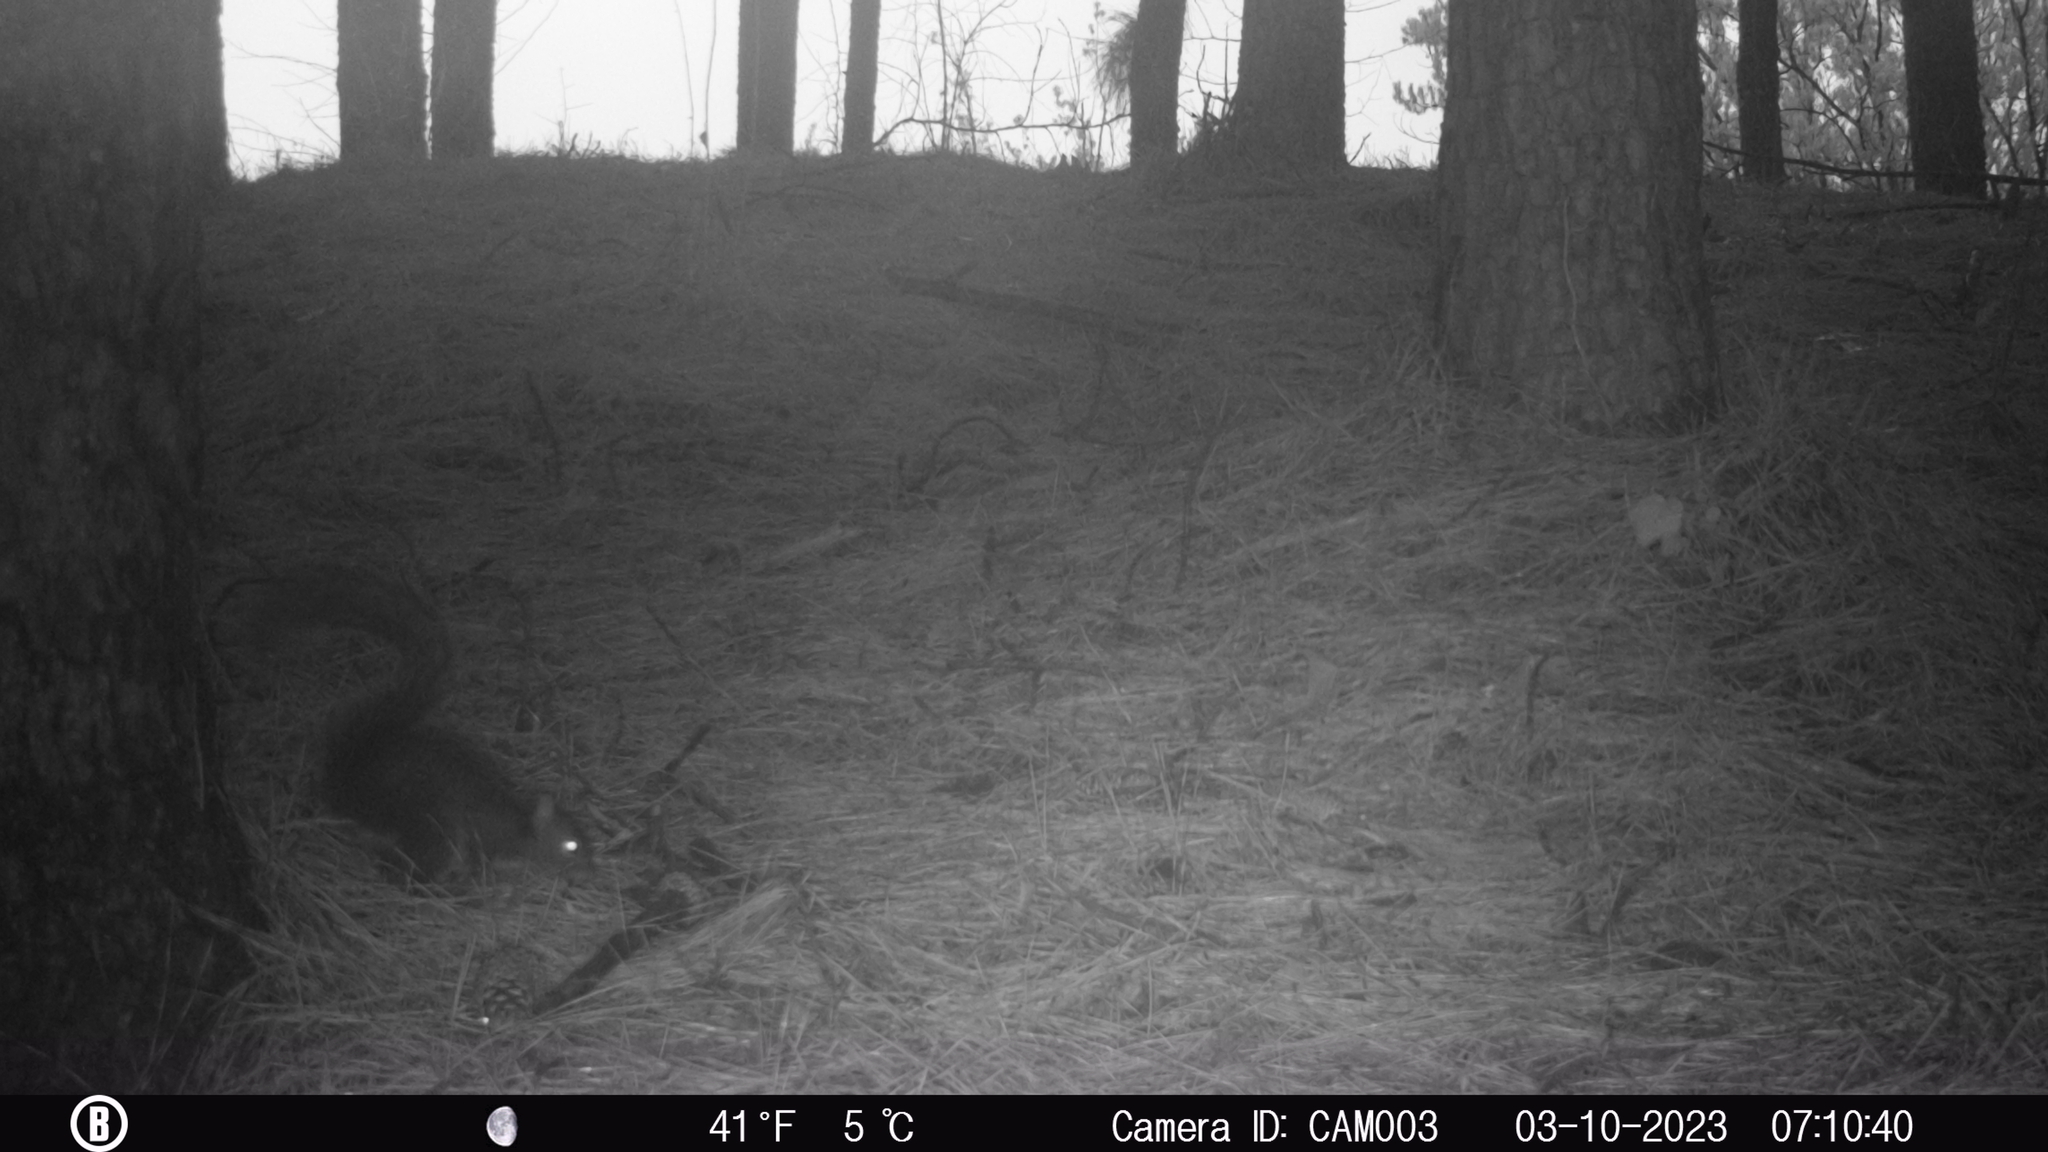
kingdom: Animalia
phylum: Chordata
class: Mammalia
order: Rodentia
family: Sciuridae
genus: Sciurus
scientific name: Sciurus carolinensis
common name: Eastern gray squirrel
